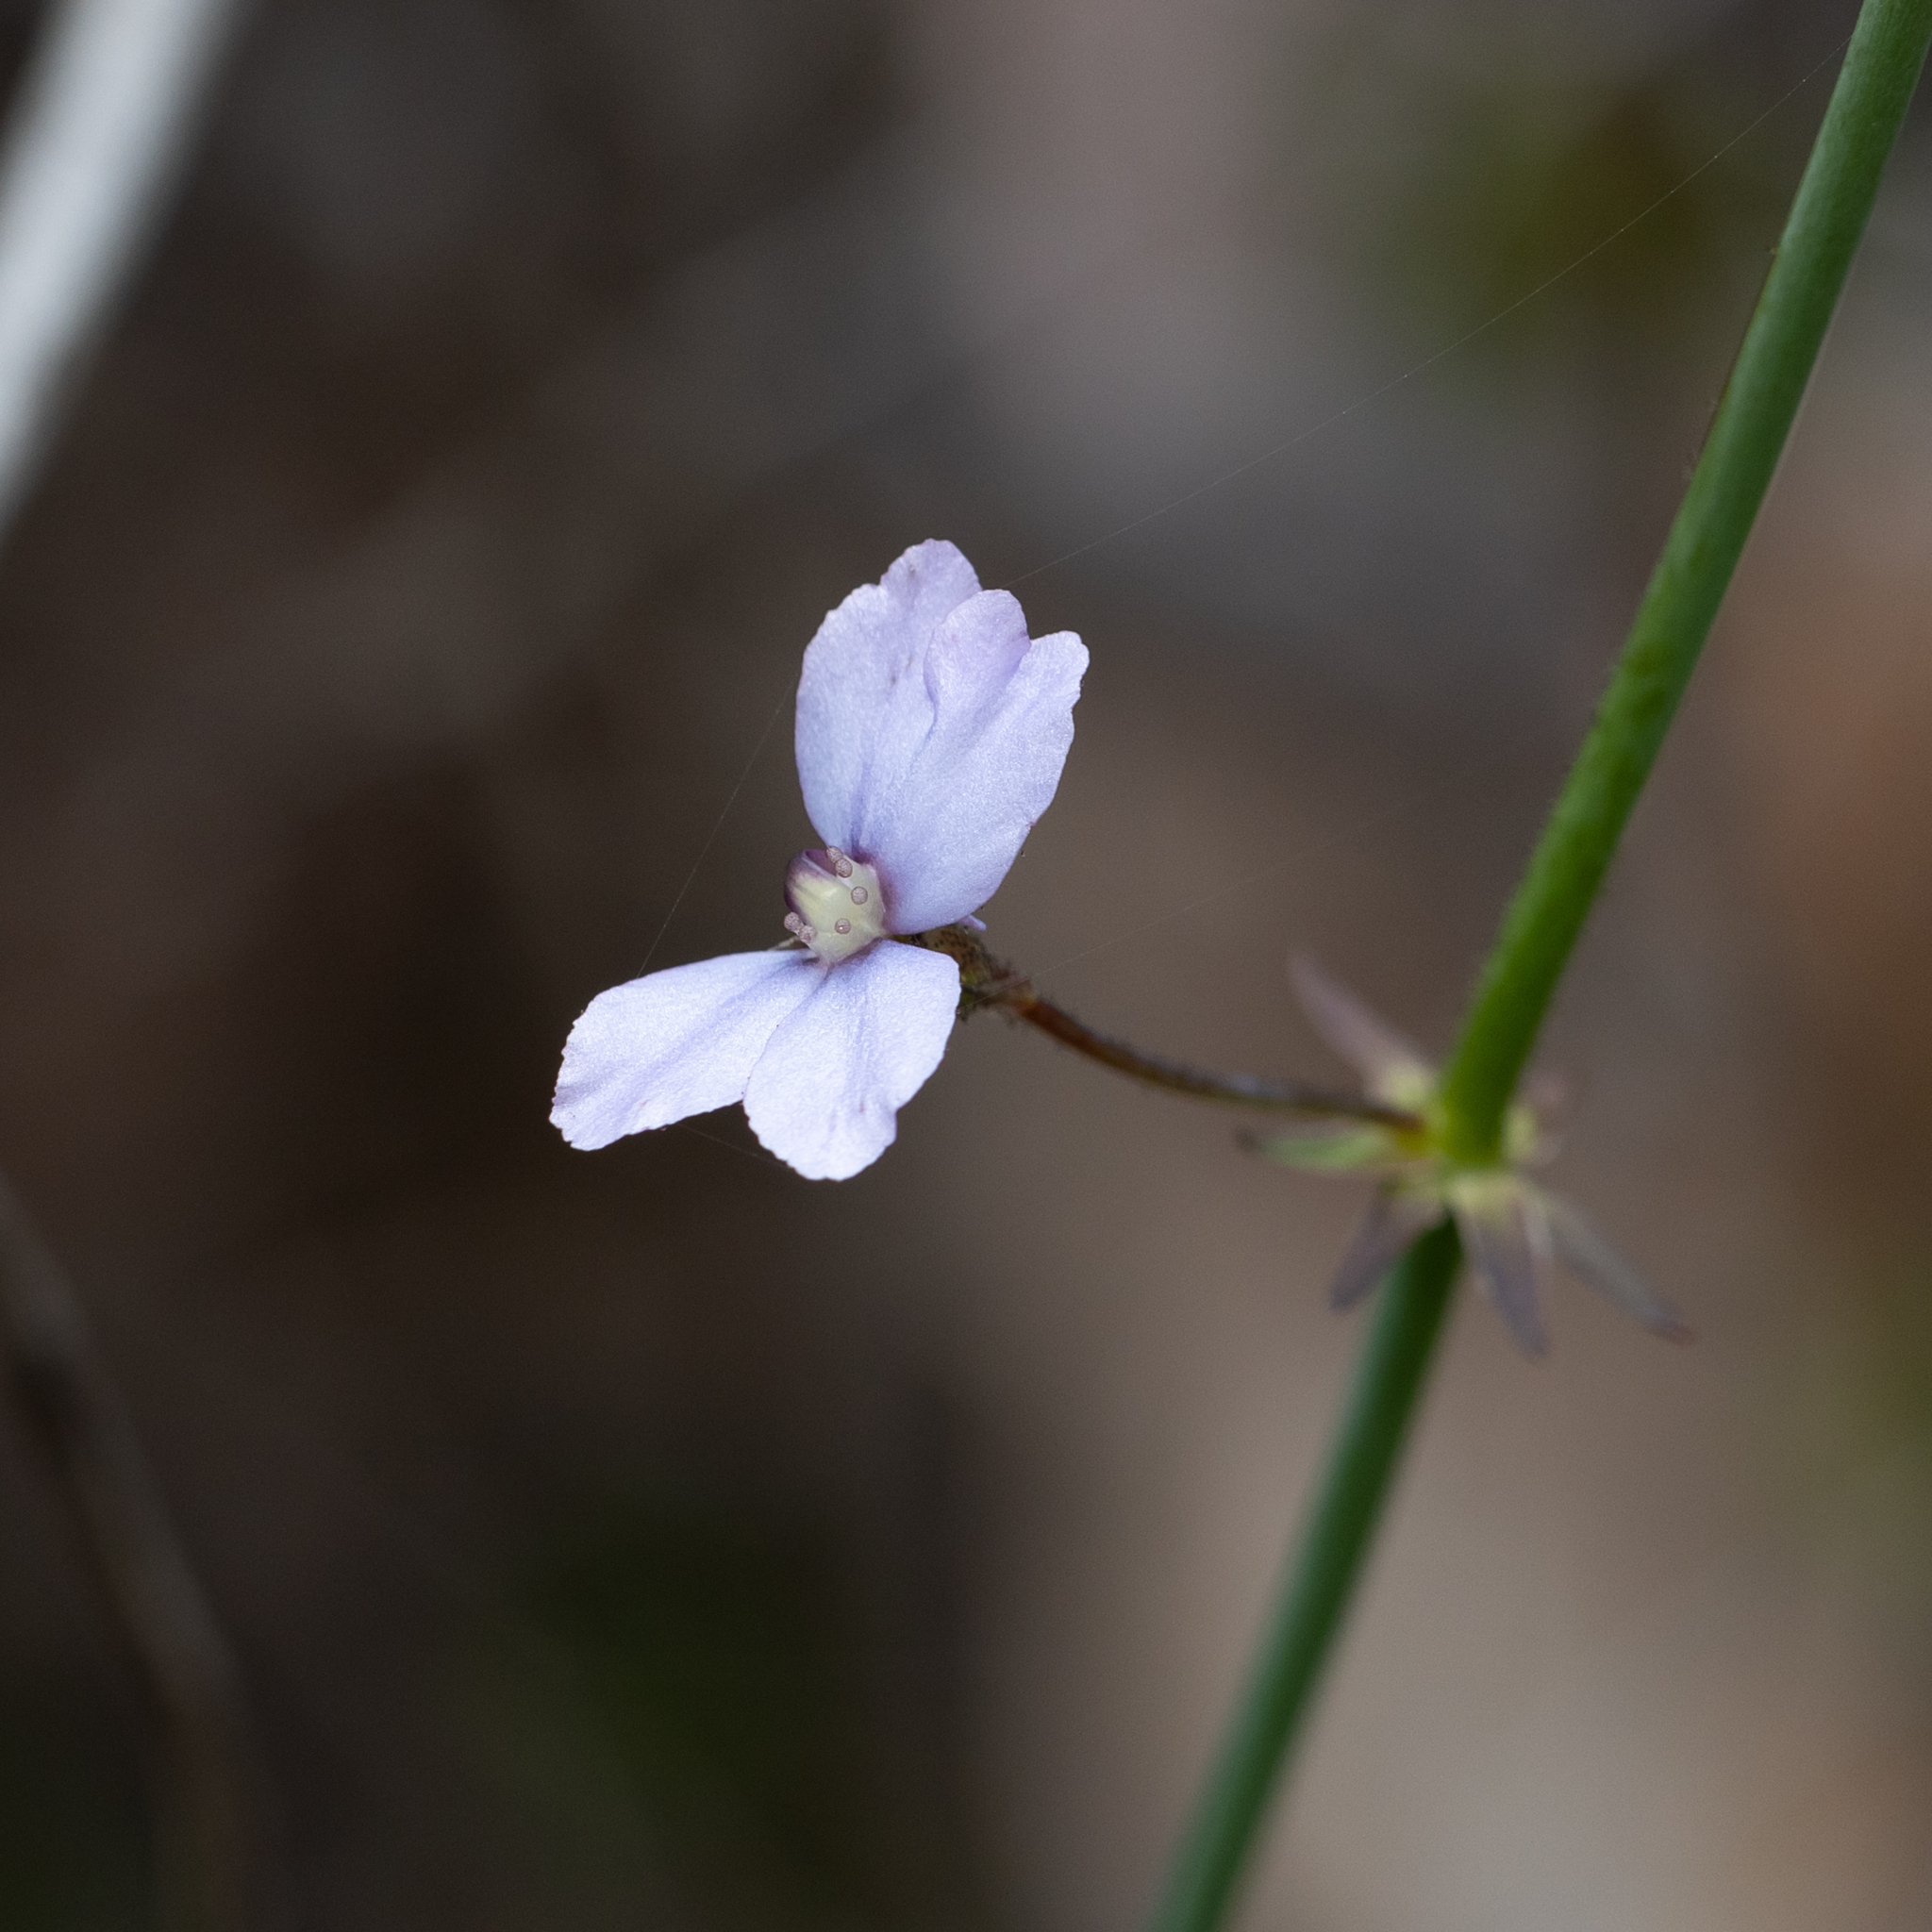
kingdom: Plantae
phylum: Tracheophyta
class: Magnoliopsida
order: Asterales
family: Stylidiaceae
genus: Stylidium
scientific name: Stylidium amoenum
